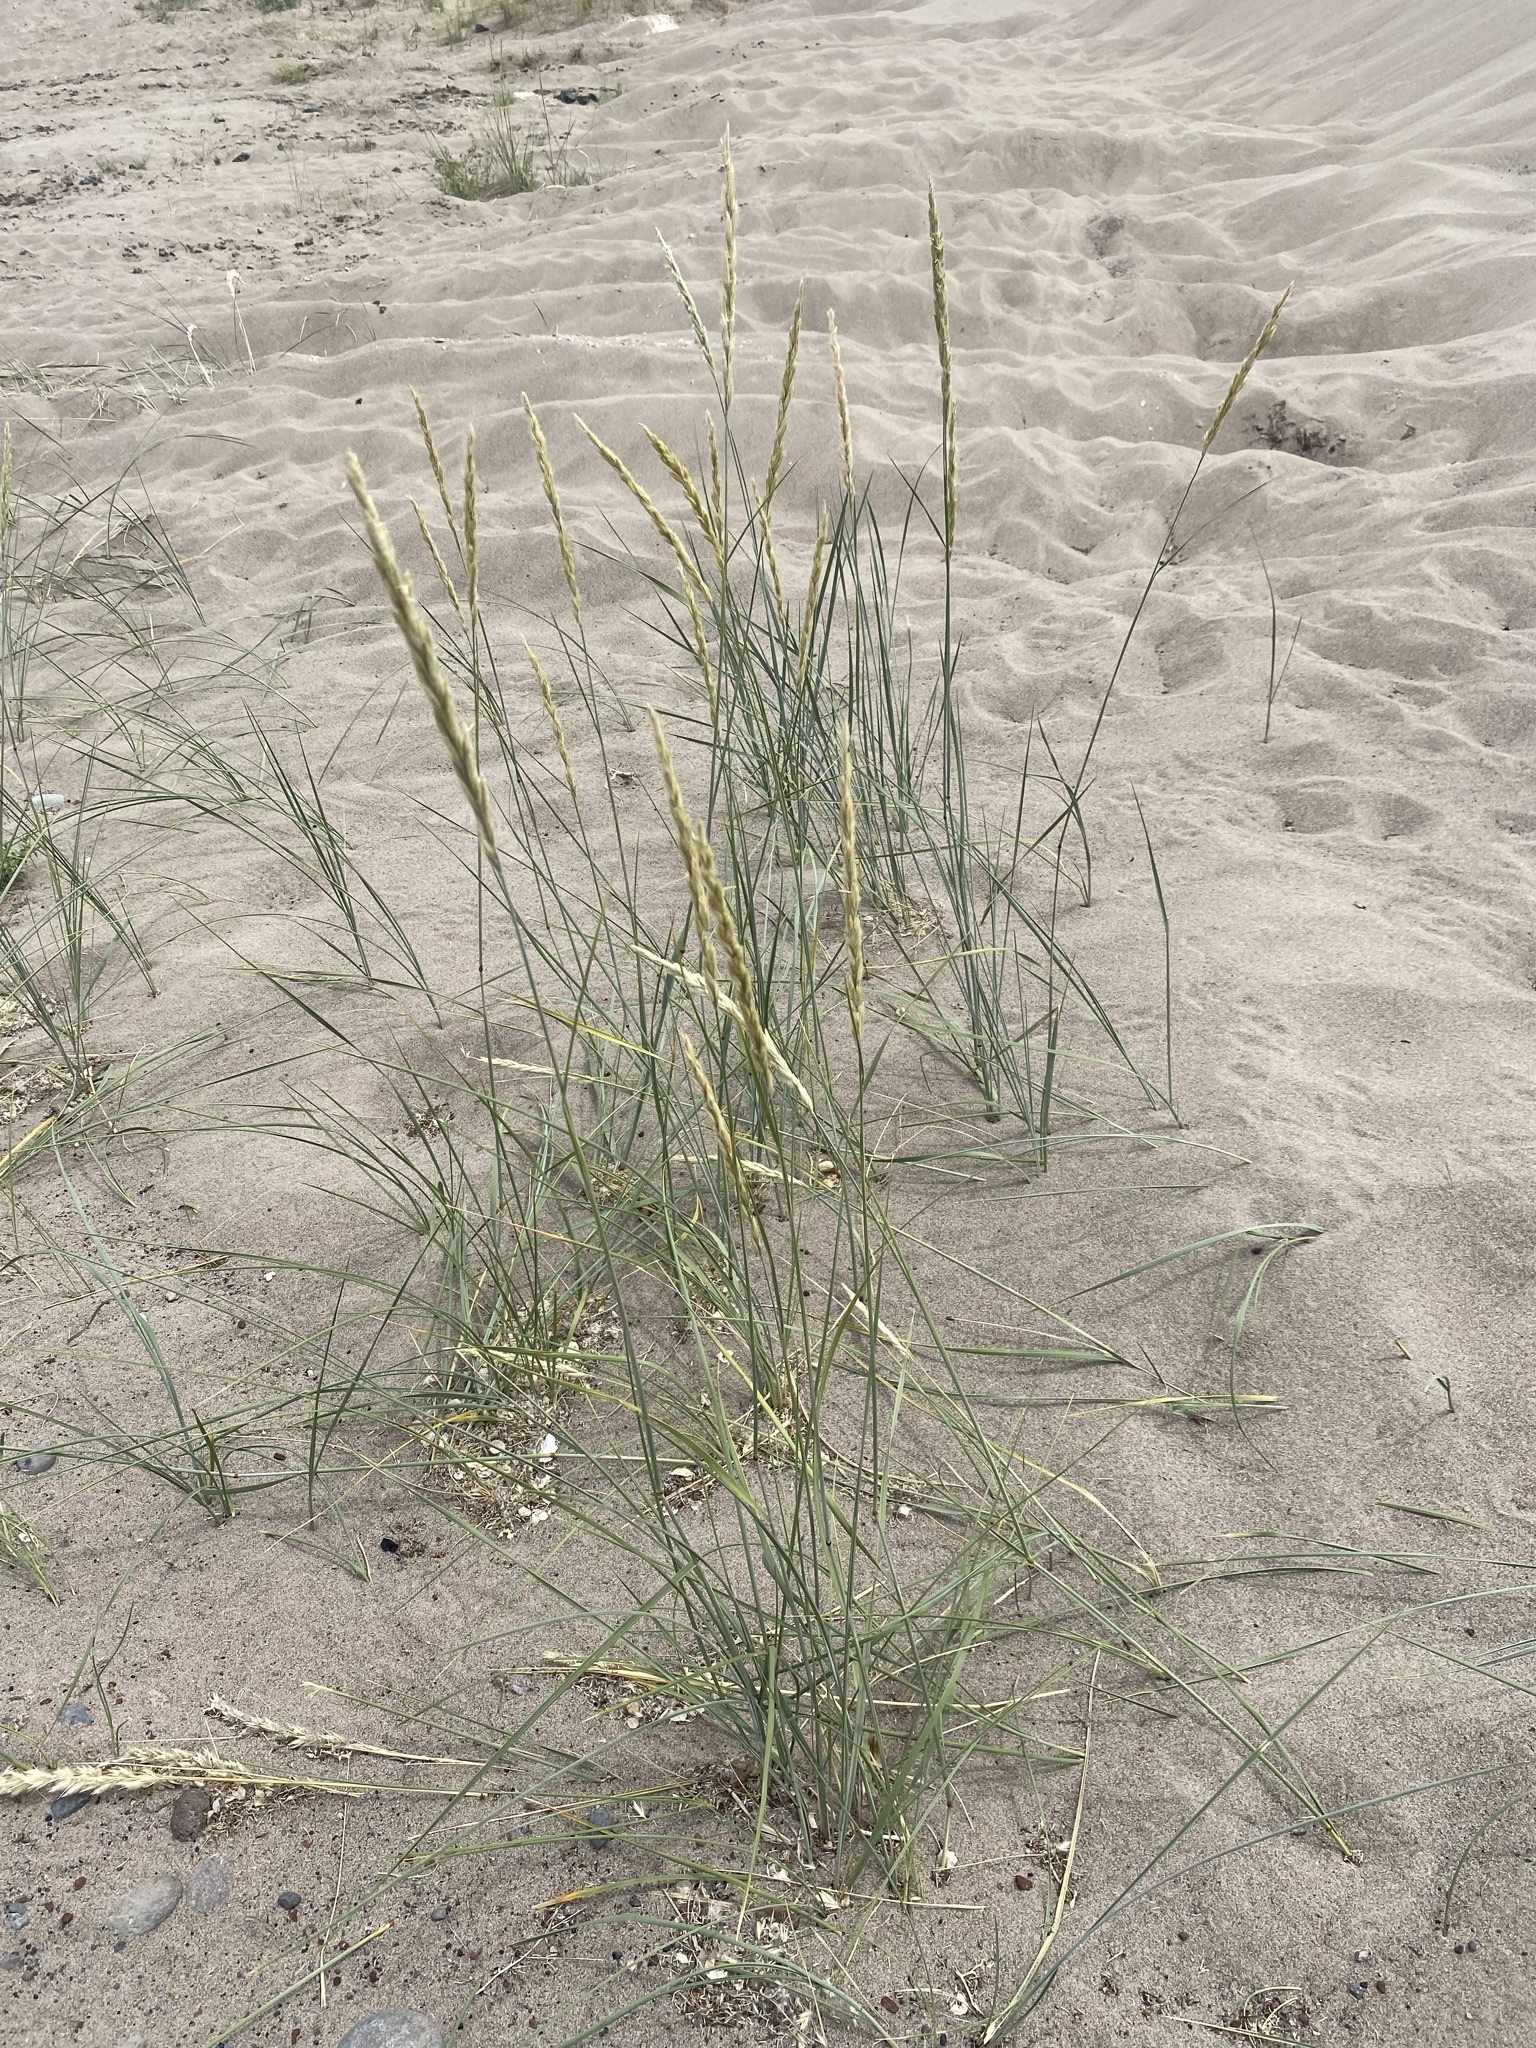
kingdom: Plantae
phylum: Tracheophyta
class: Liliopsida
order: Poales
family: Poaceae
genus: Leymus
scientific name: Leymus flavescens
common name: Yellow wild rye
